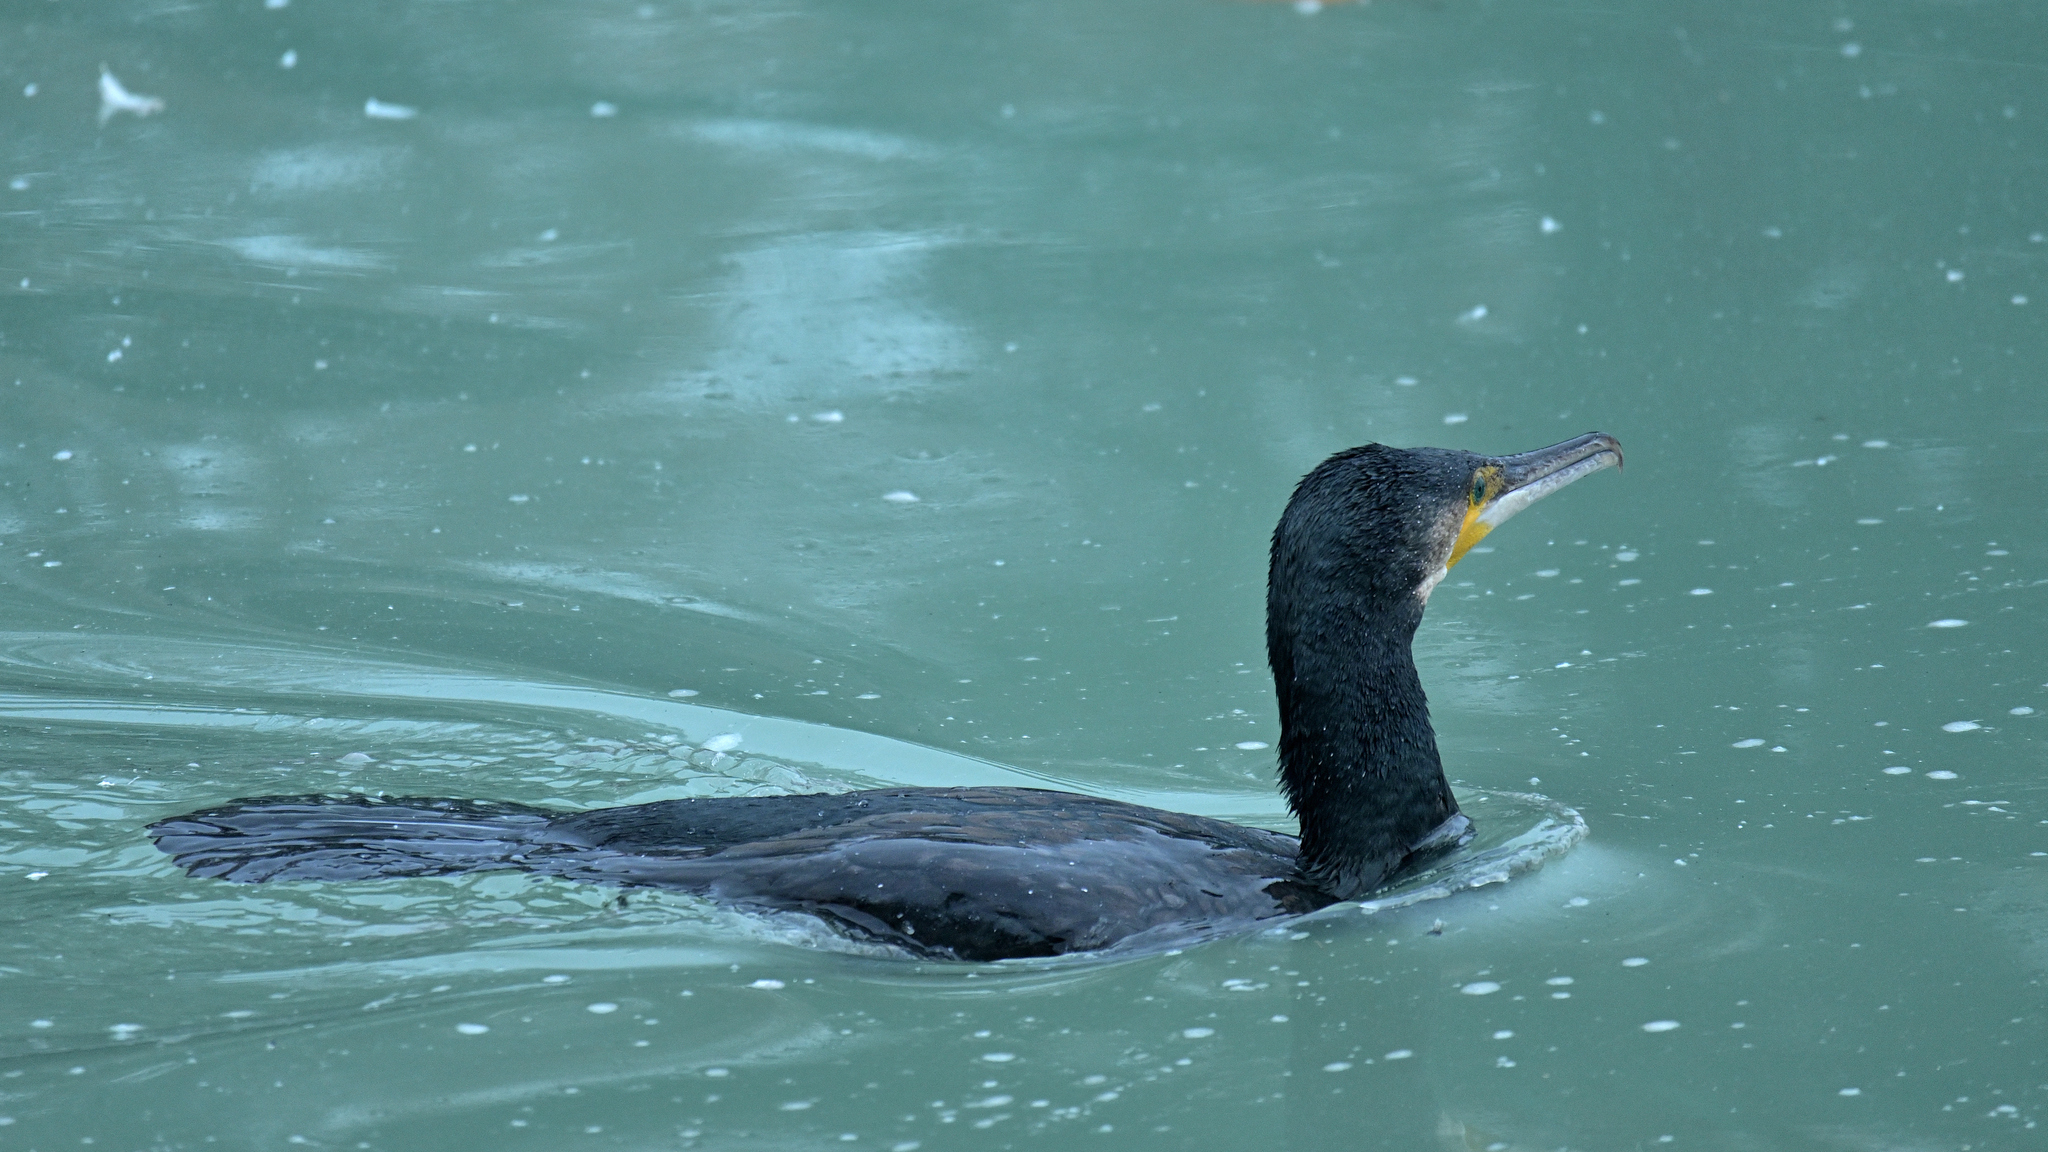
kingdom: Animalia
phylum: Chordata
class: Aves
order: Suliformes
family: Phalacrocoracidae
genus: Phalacrocorax
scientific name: Phalacrocorax carbo
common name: Great cormorant
